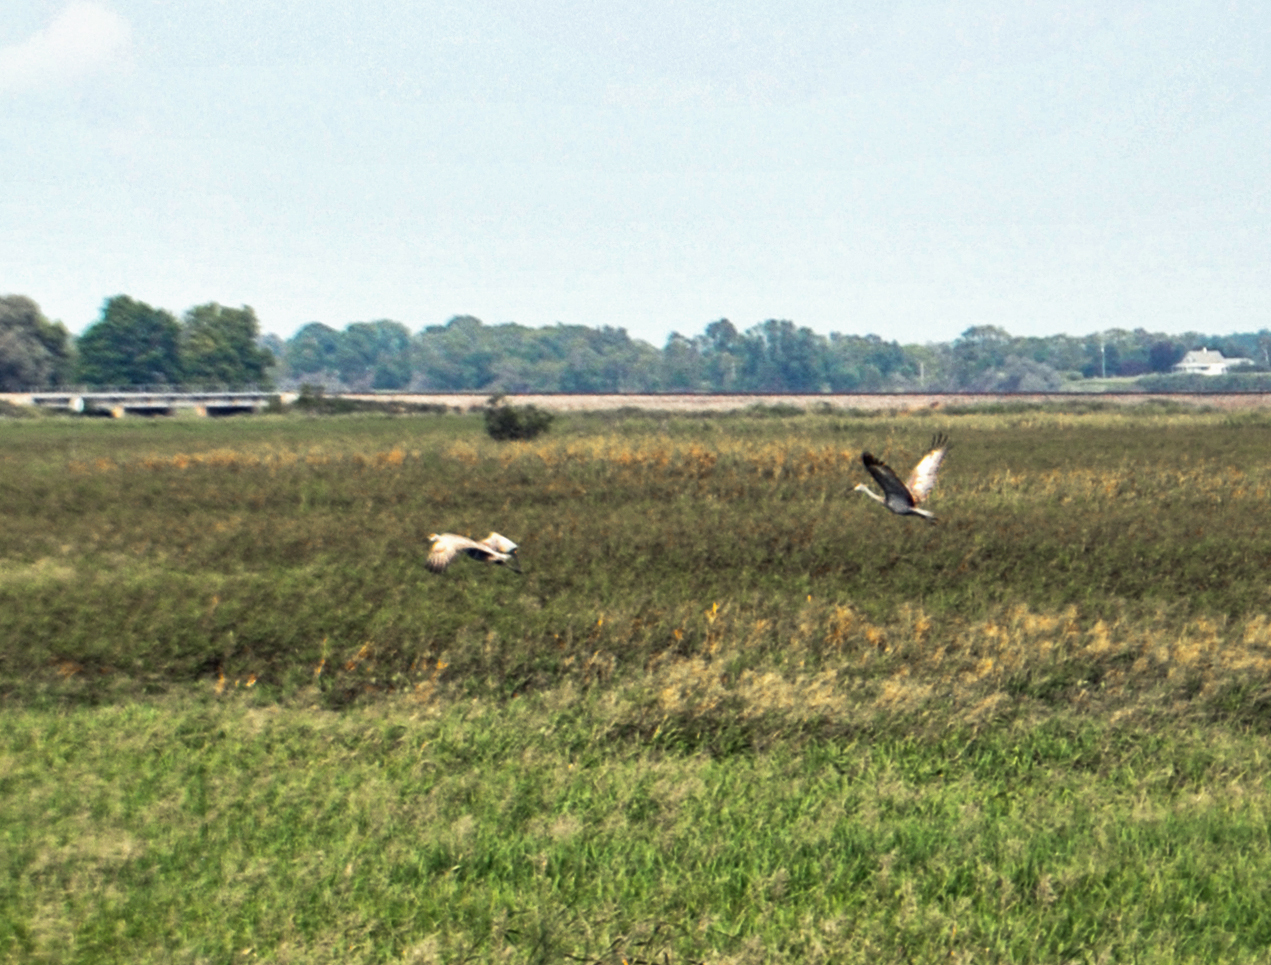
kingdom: Animalia
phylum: Chordata
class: Aves
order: Gruiformes
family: Gruidae
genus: Grus
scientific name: Grus canadensis
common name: Sandhill crane
